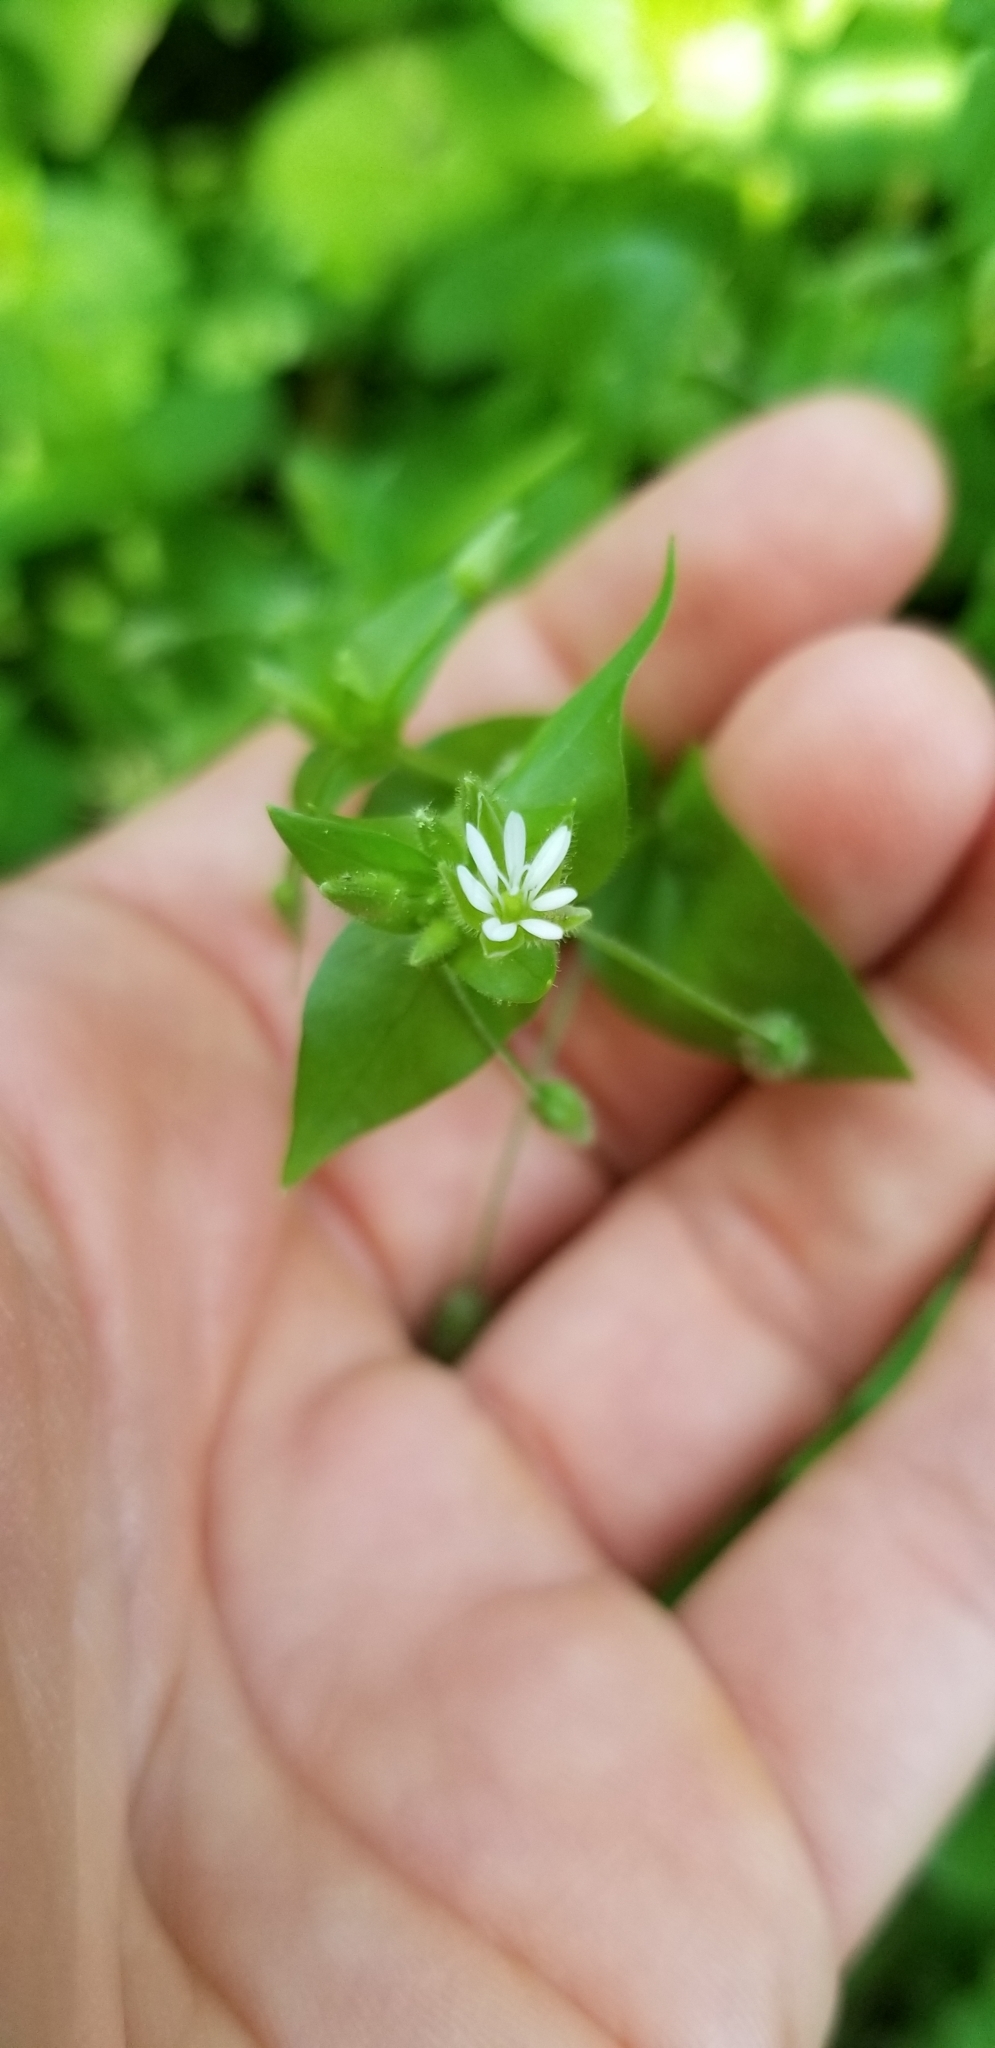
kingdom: Plantae
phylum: Tracheophyta
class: Magnoliopsida
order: Caryophyllales
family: Caryophyllaceae
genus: Stellaria
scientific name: Stellaria media
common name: Common chickweed
